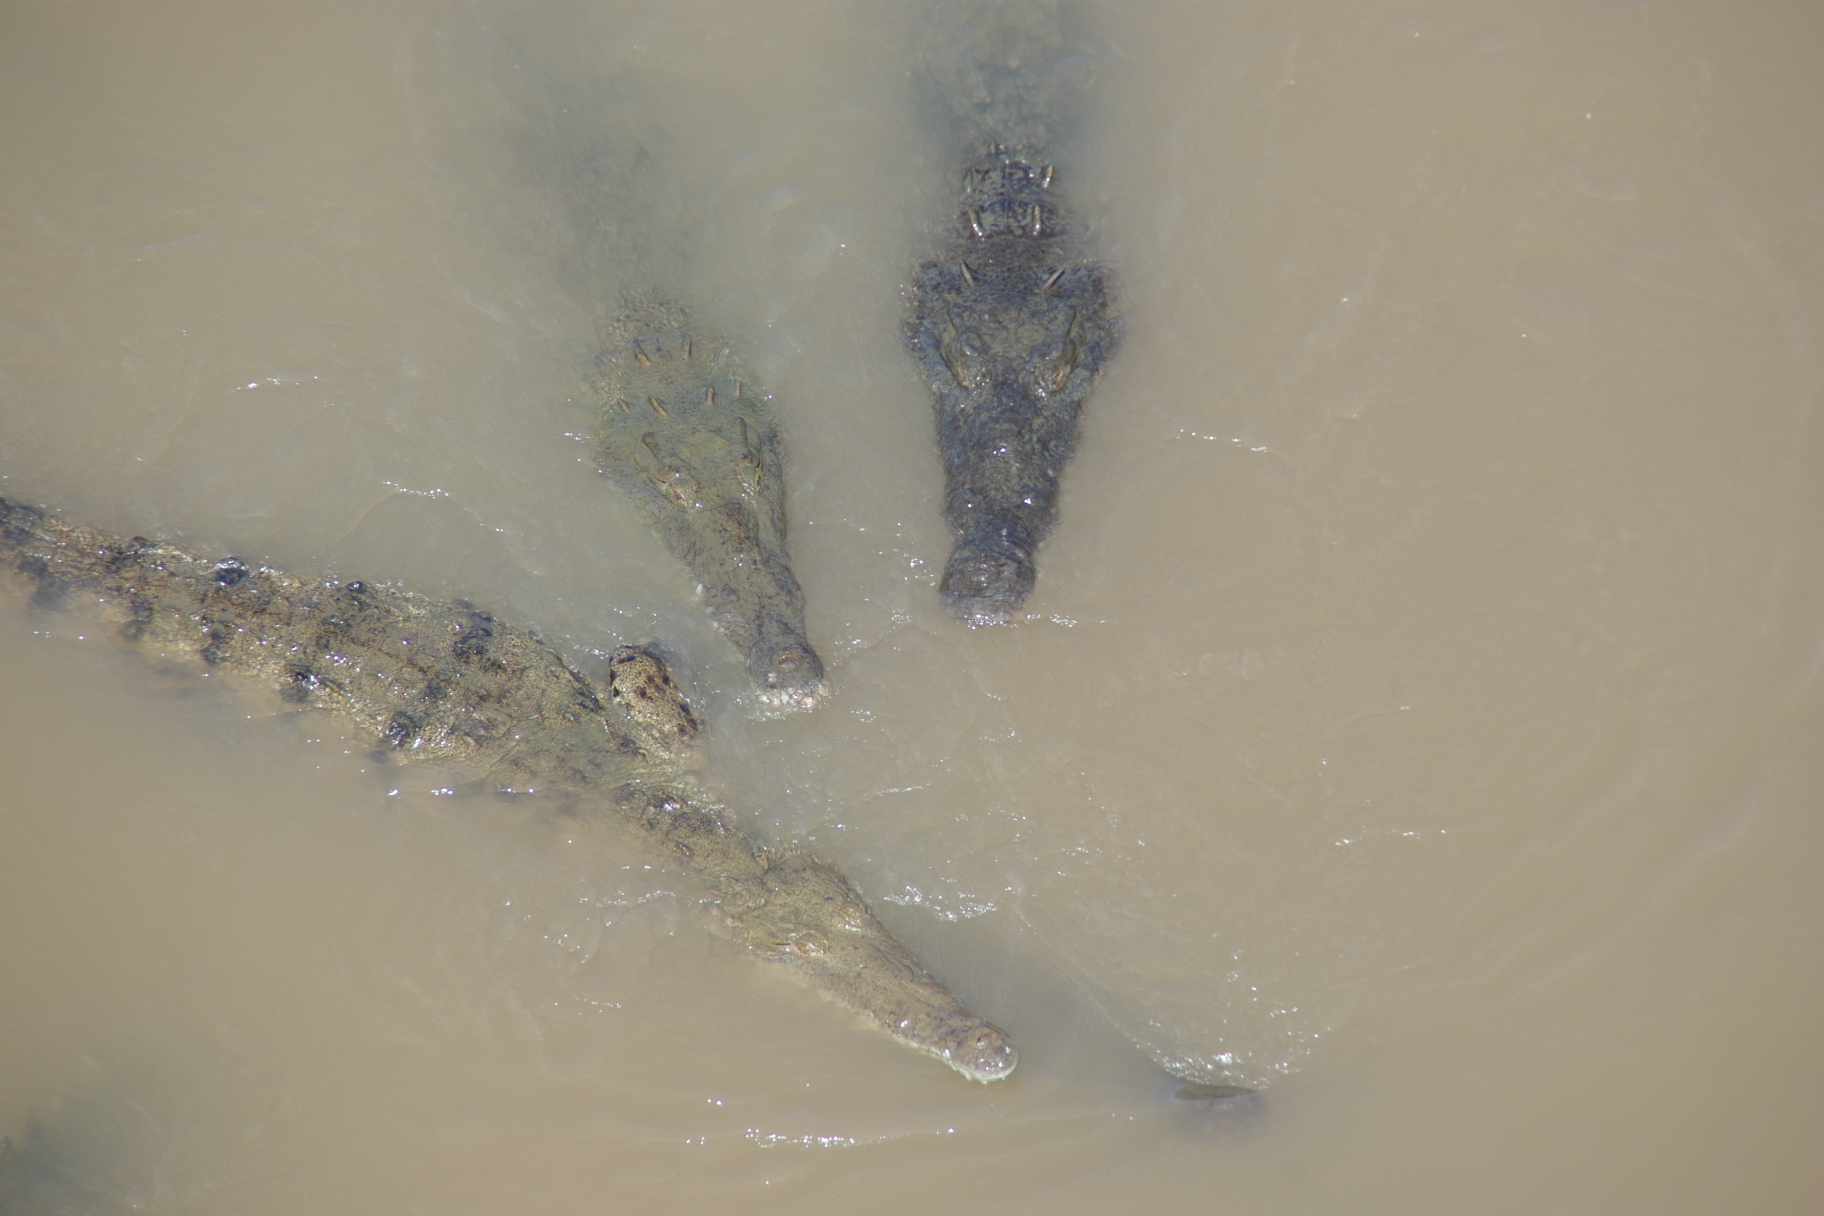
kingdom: Animalia
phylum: Chordata
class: Crocodylia
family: Crocodylidae
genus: Crocodylus
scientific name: Crocodylus acutus
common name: American crocodile
